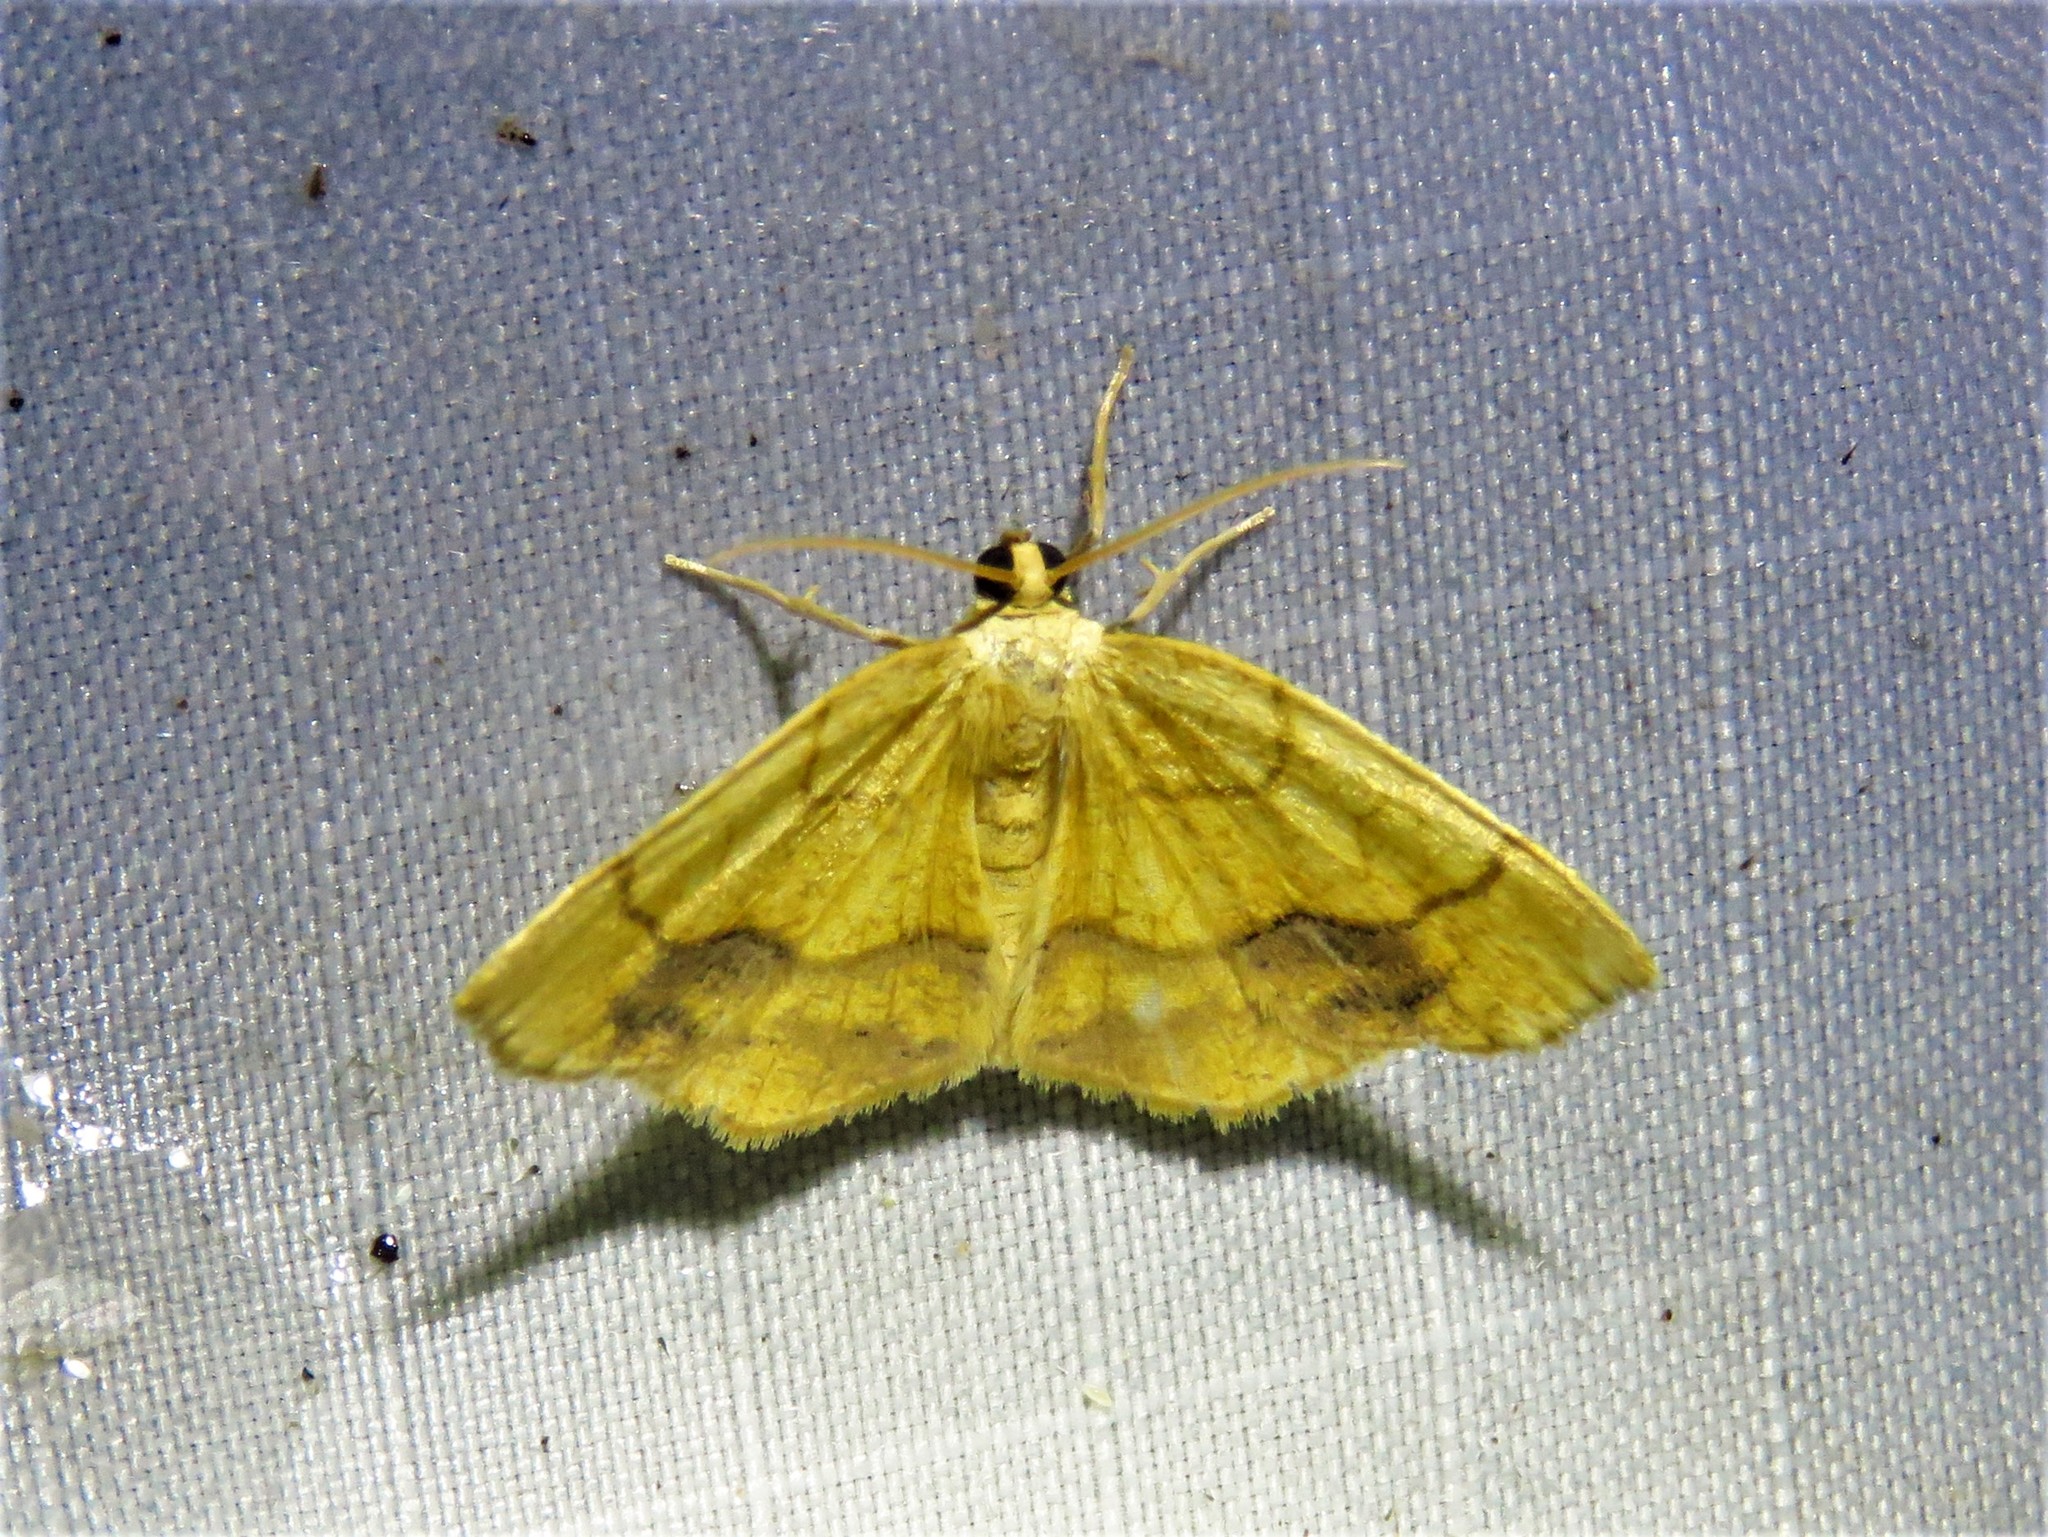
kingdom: Animalia
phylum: Arthropoda
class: Insecta
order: Lepidoptera
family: Geometridae
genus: Nematocampa
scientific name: Nematocampa resistaria
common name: Horned spanworm moth
